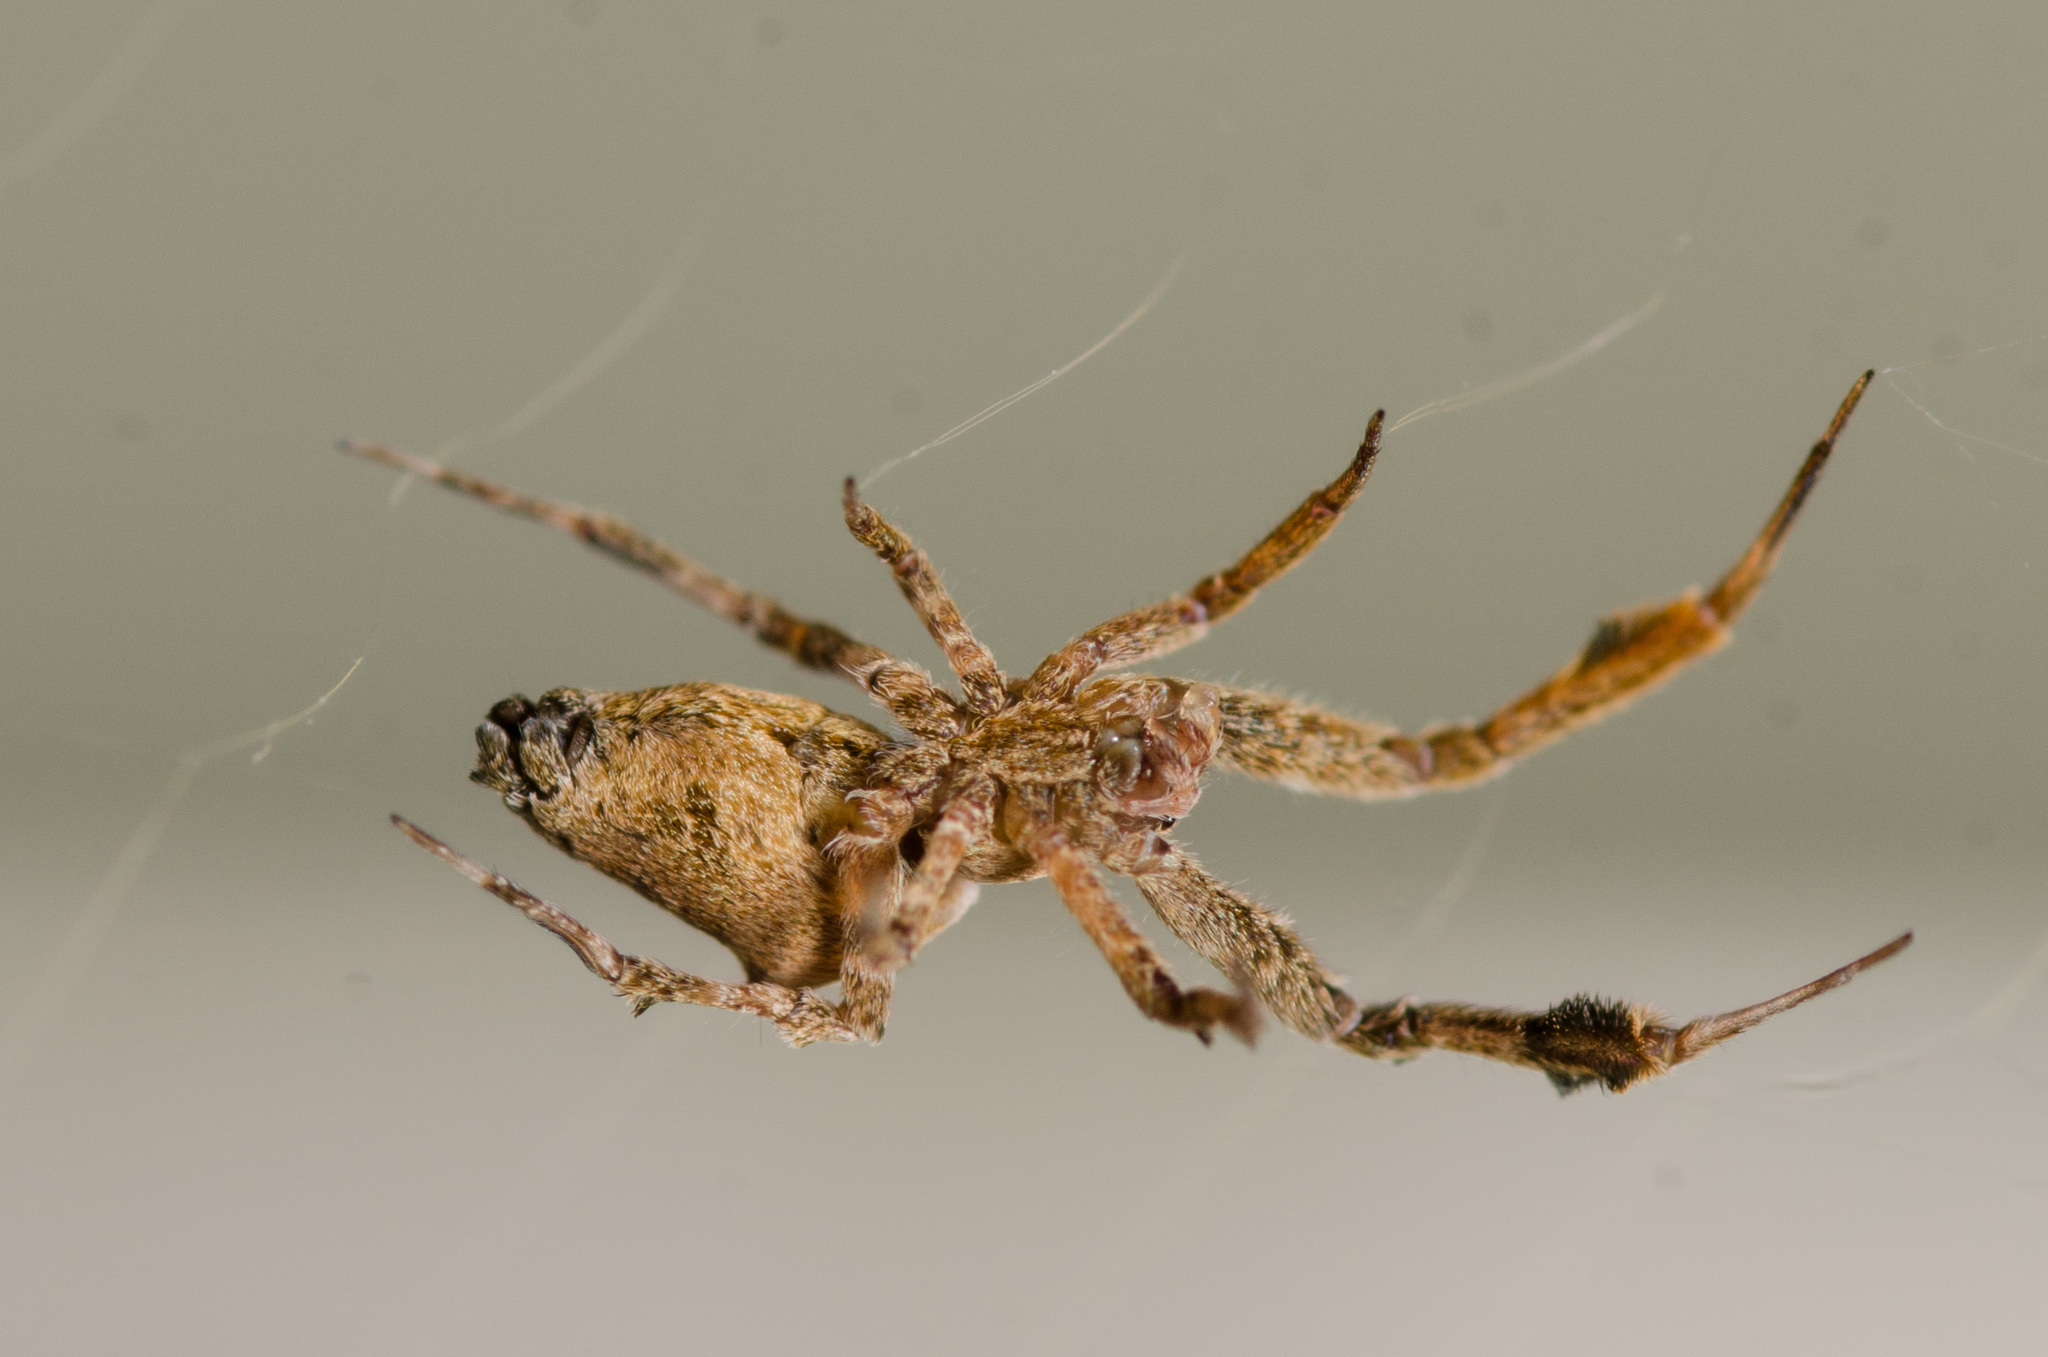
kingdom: Animalia
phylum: Arthropoda
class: Arachnida
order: Araneae
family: Uloboridae
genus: Uloborus
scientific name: Uloborus glomosus
